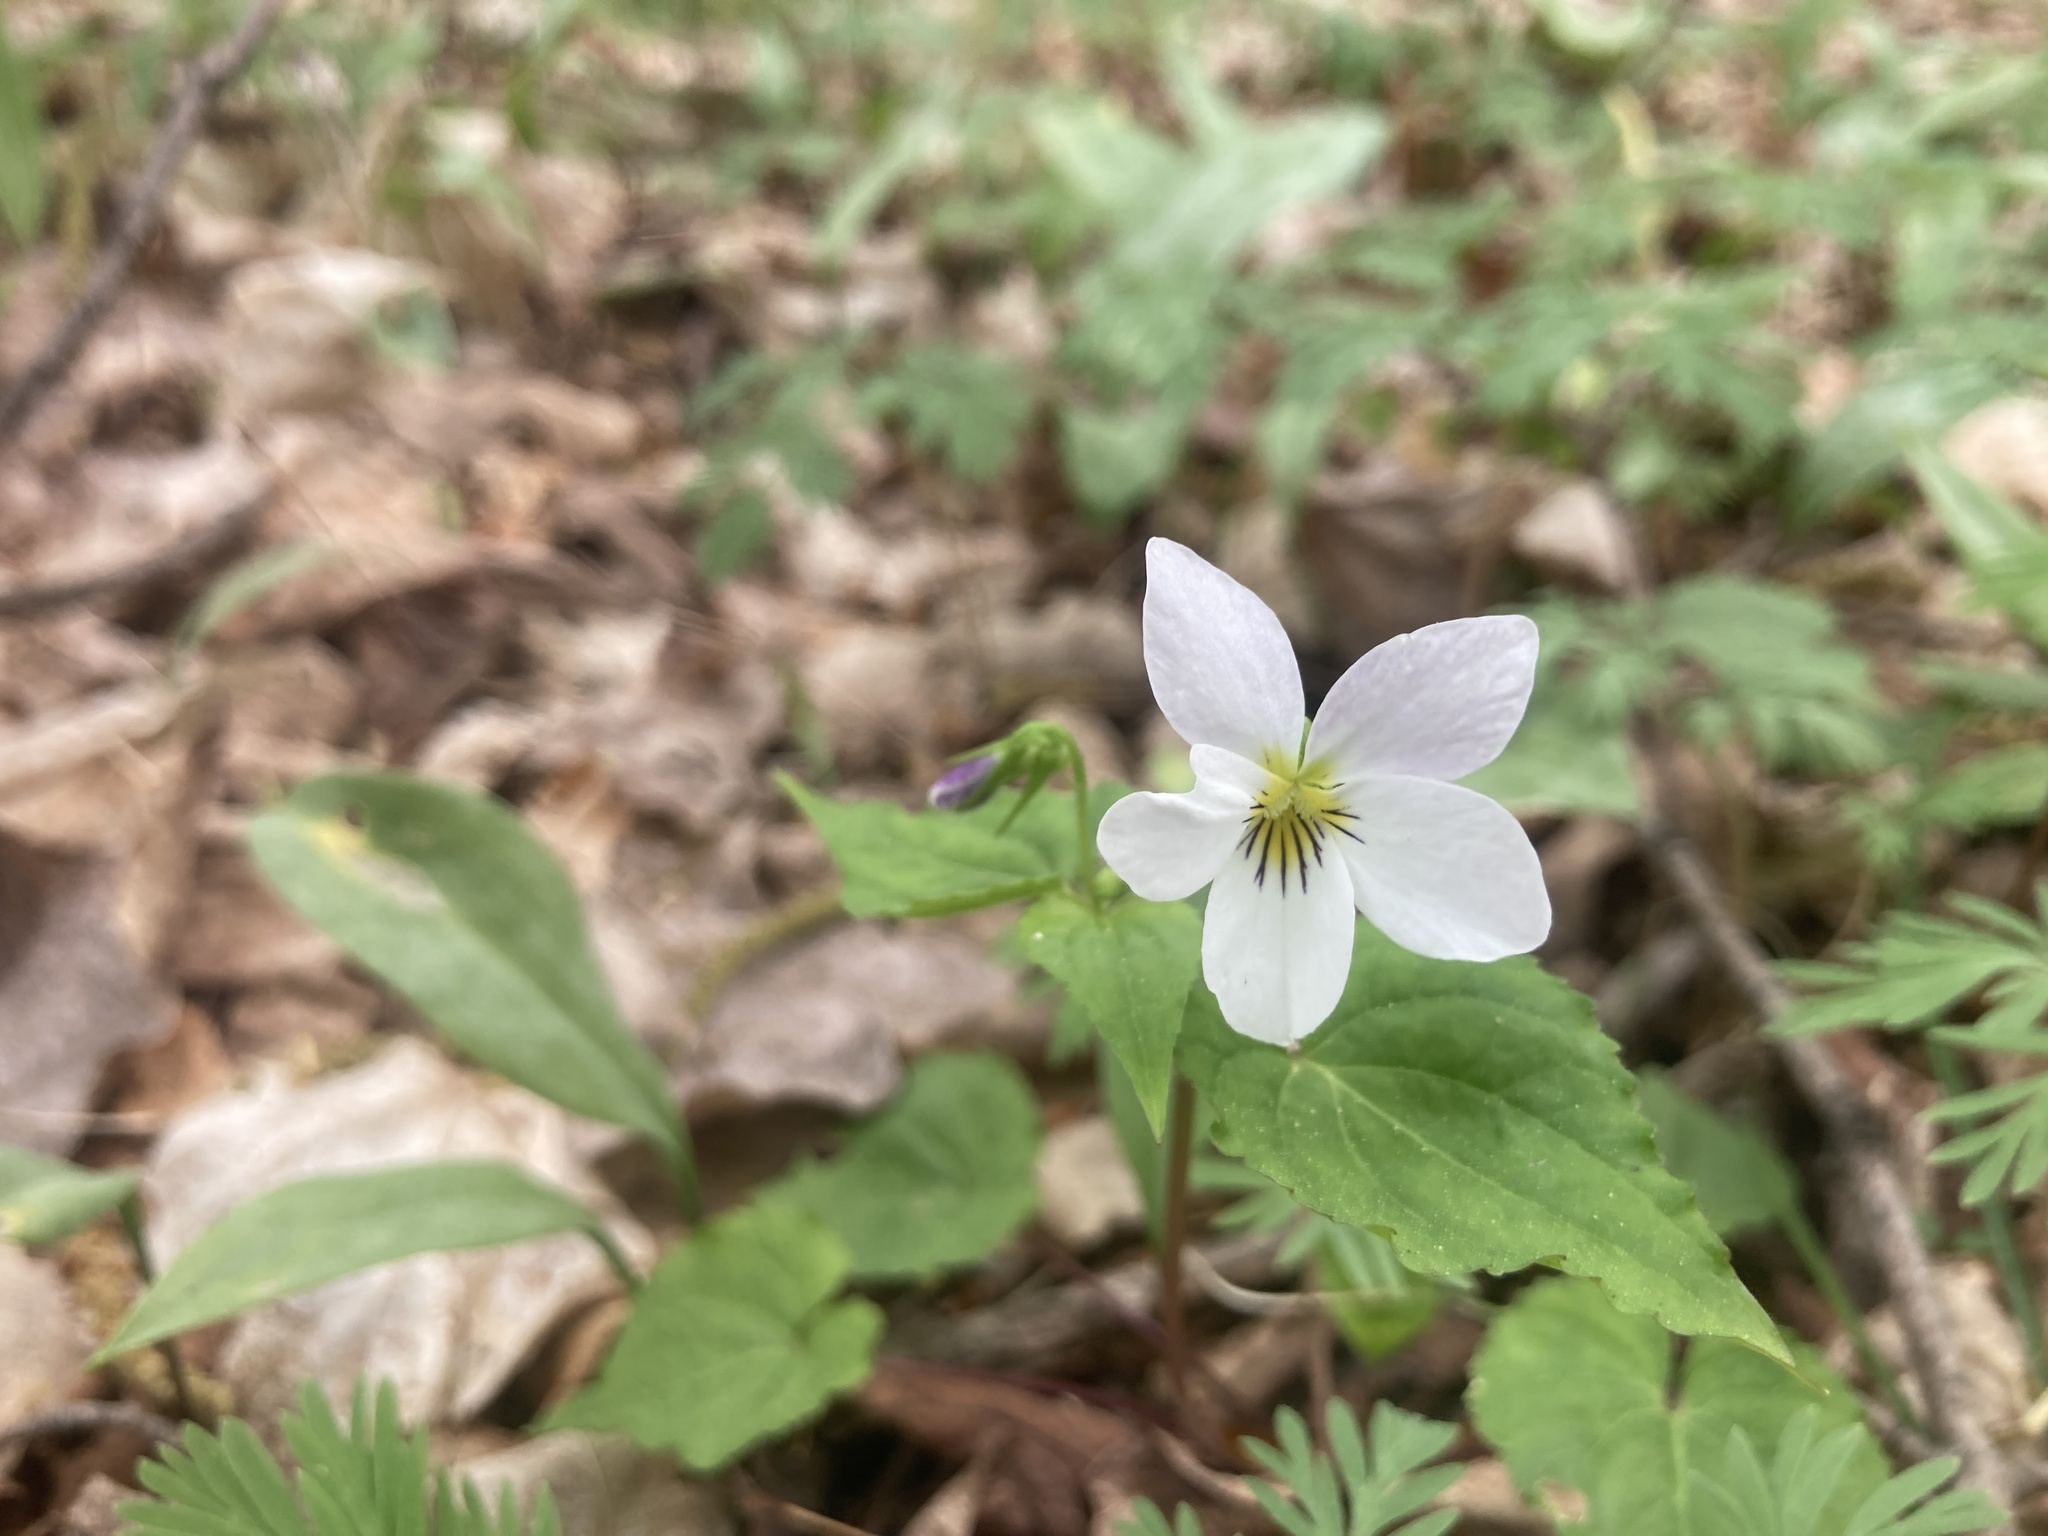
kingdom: Plantae
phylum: Tracheophyta
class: Magnoliopsida
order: Malpighiales
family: Violaceae
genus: Viola
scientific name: Viola canadensis
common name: Canada violet
